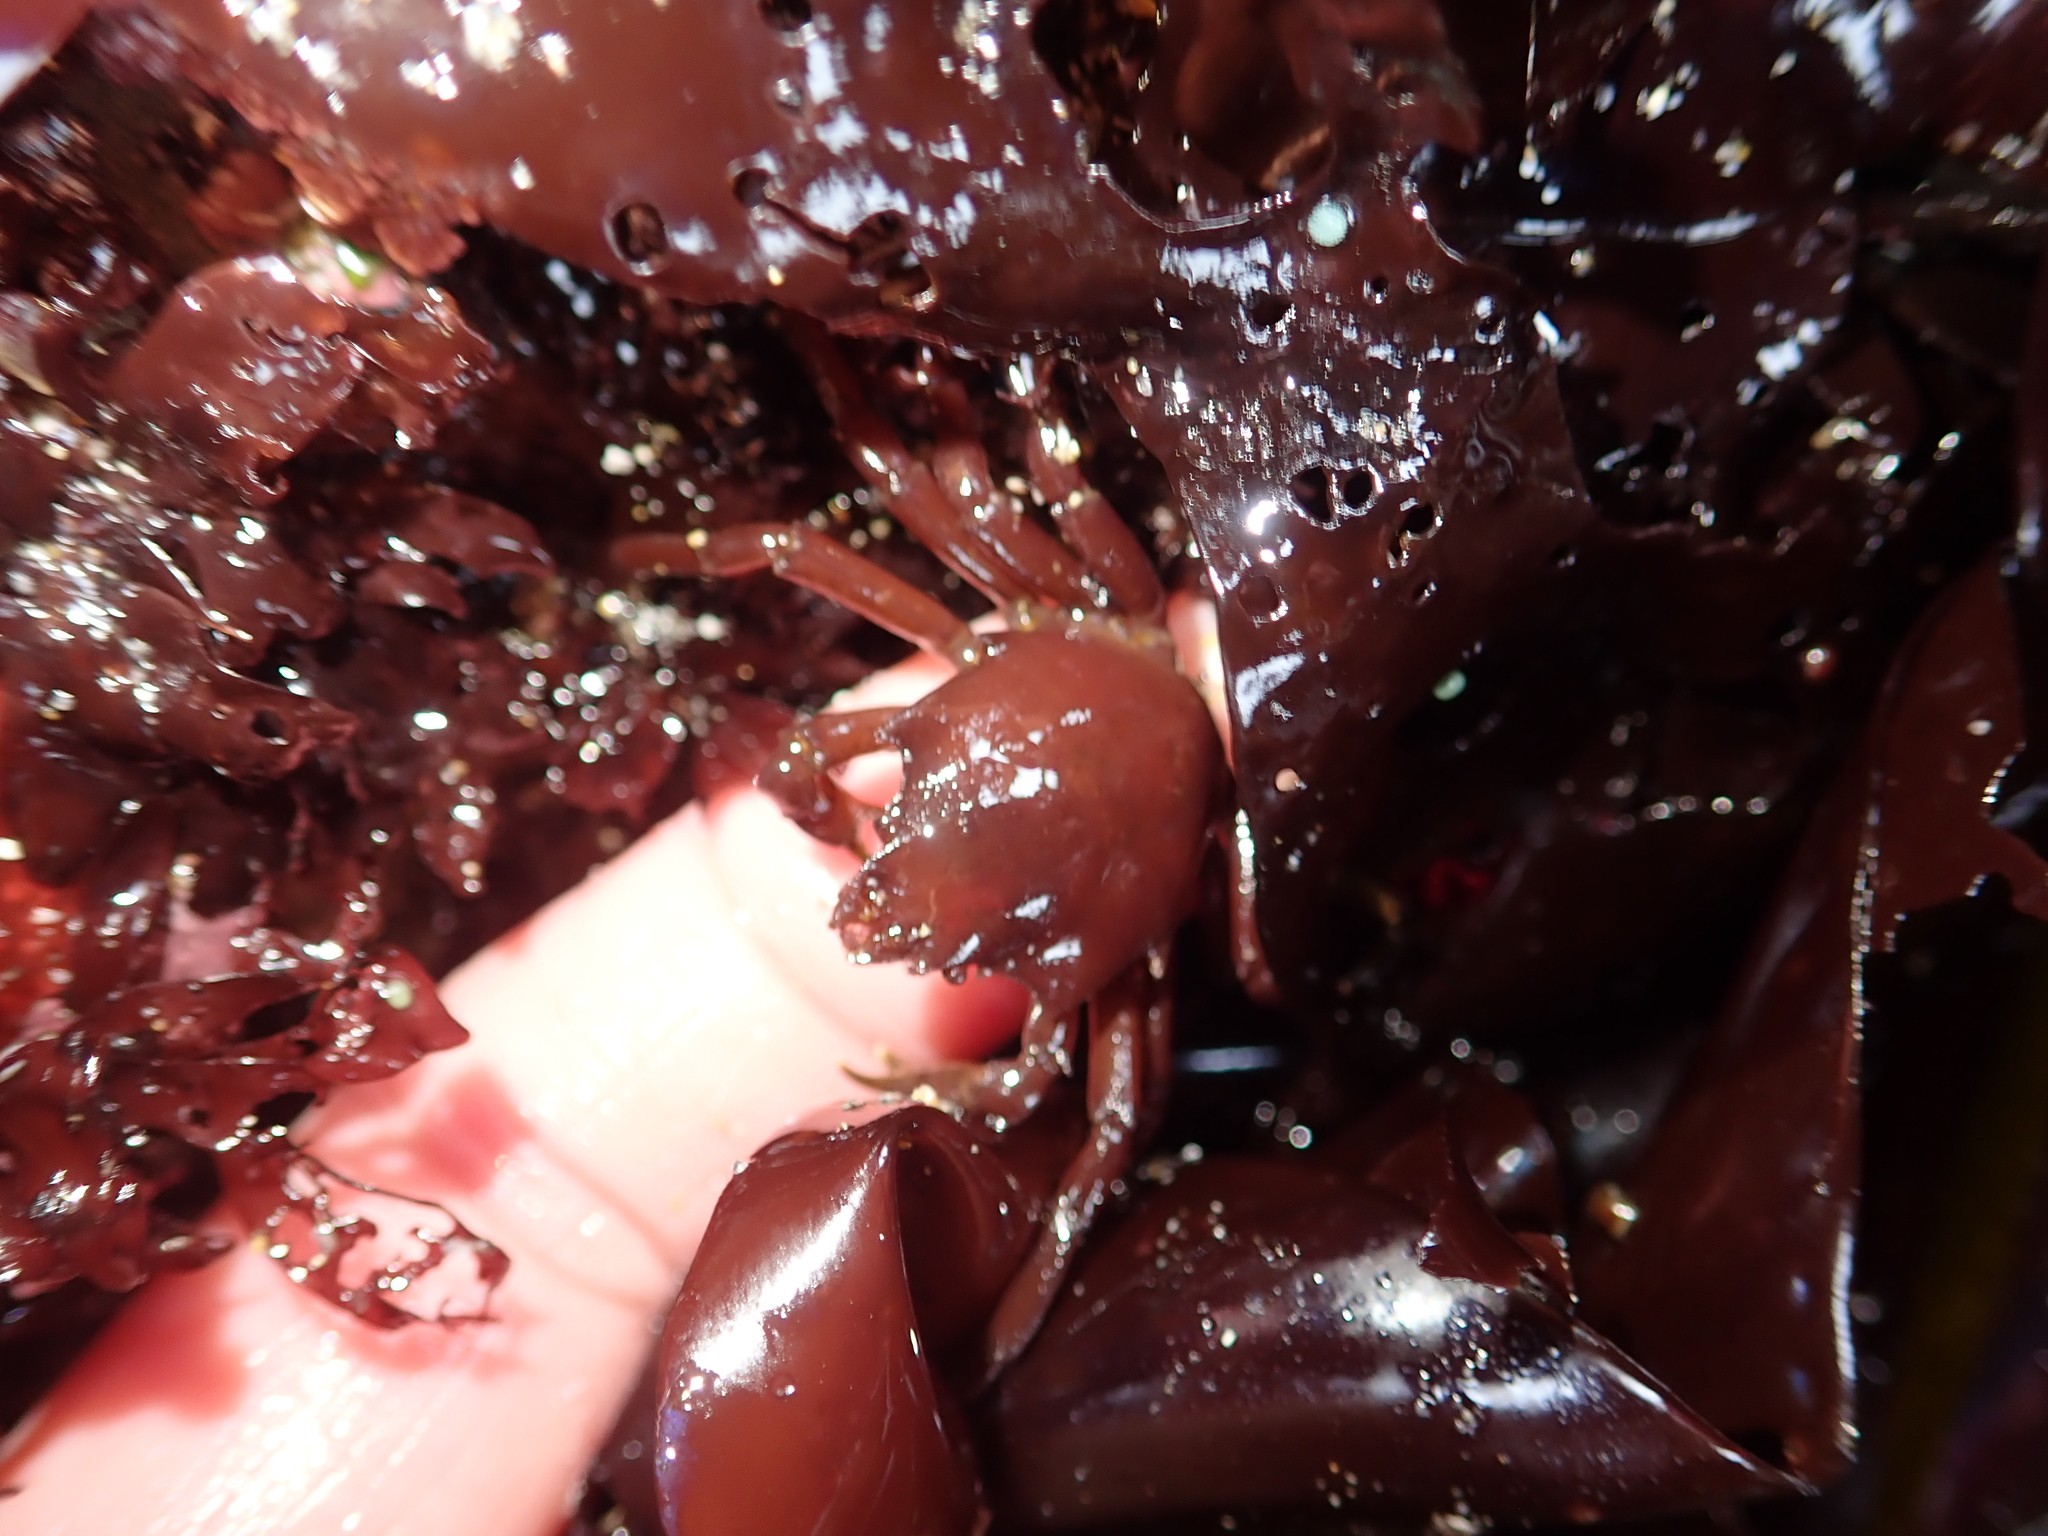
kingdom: Animalia
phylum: Arthropoda
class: Malacostraca
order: Decapoda
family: Epialtidae
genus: Pugettia
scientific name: Pugettia producta
